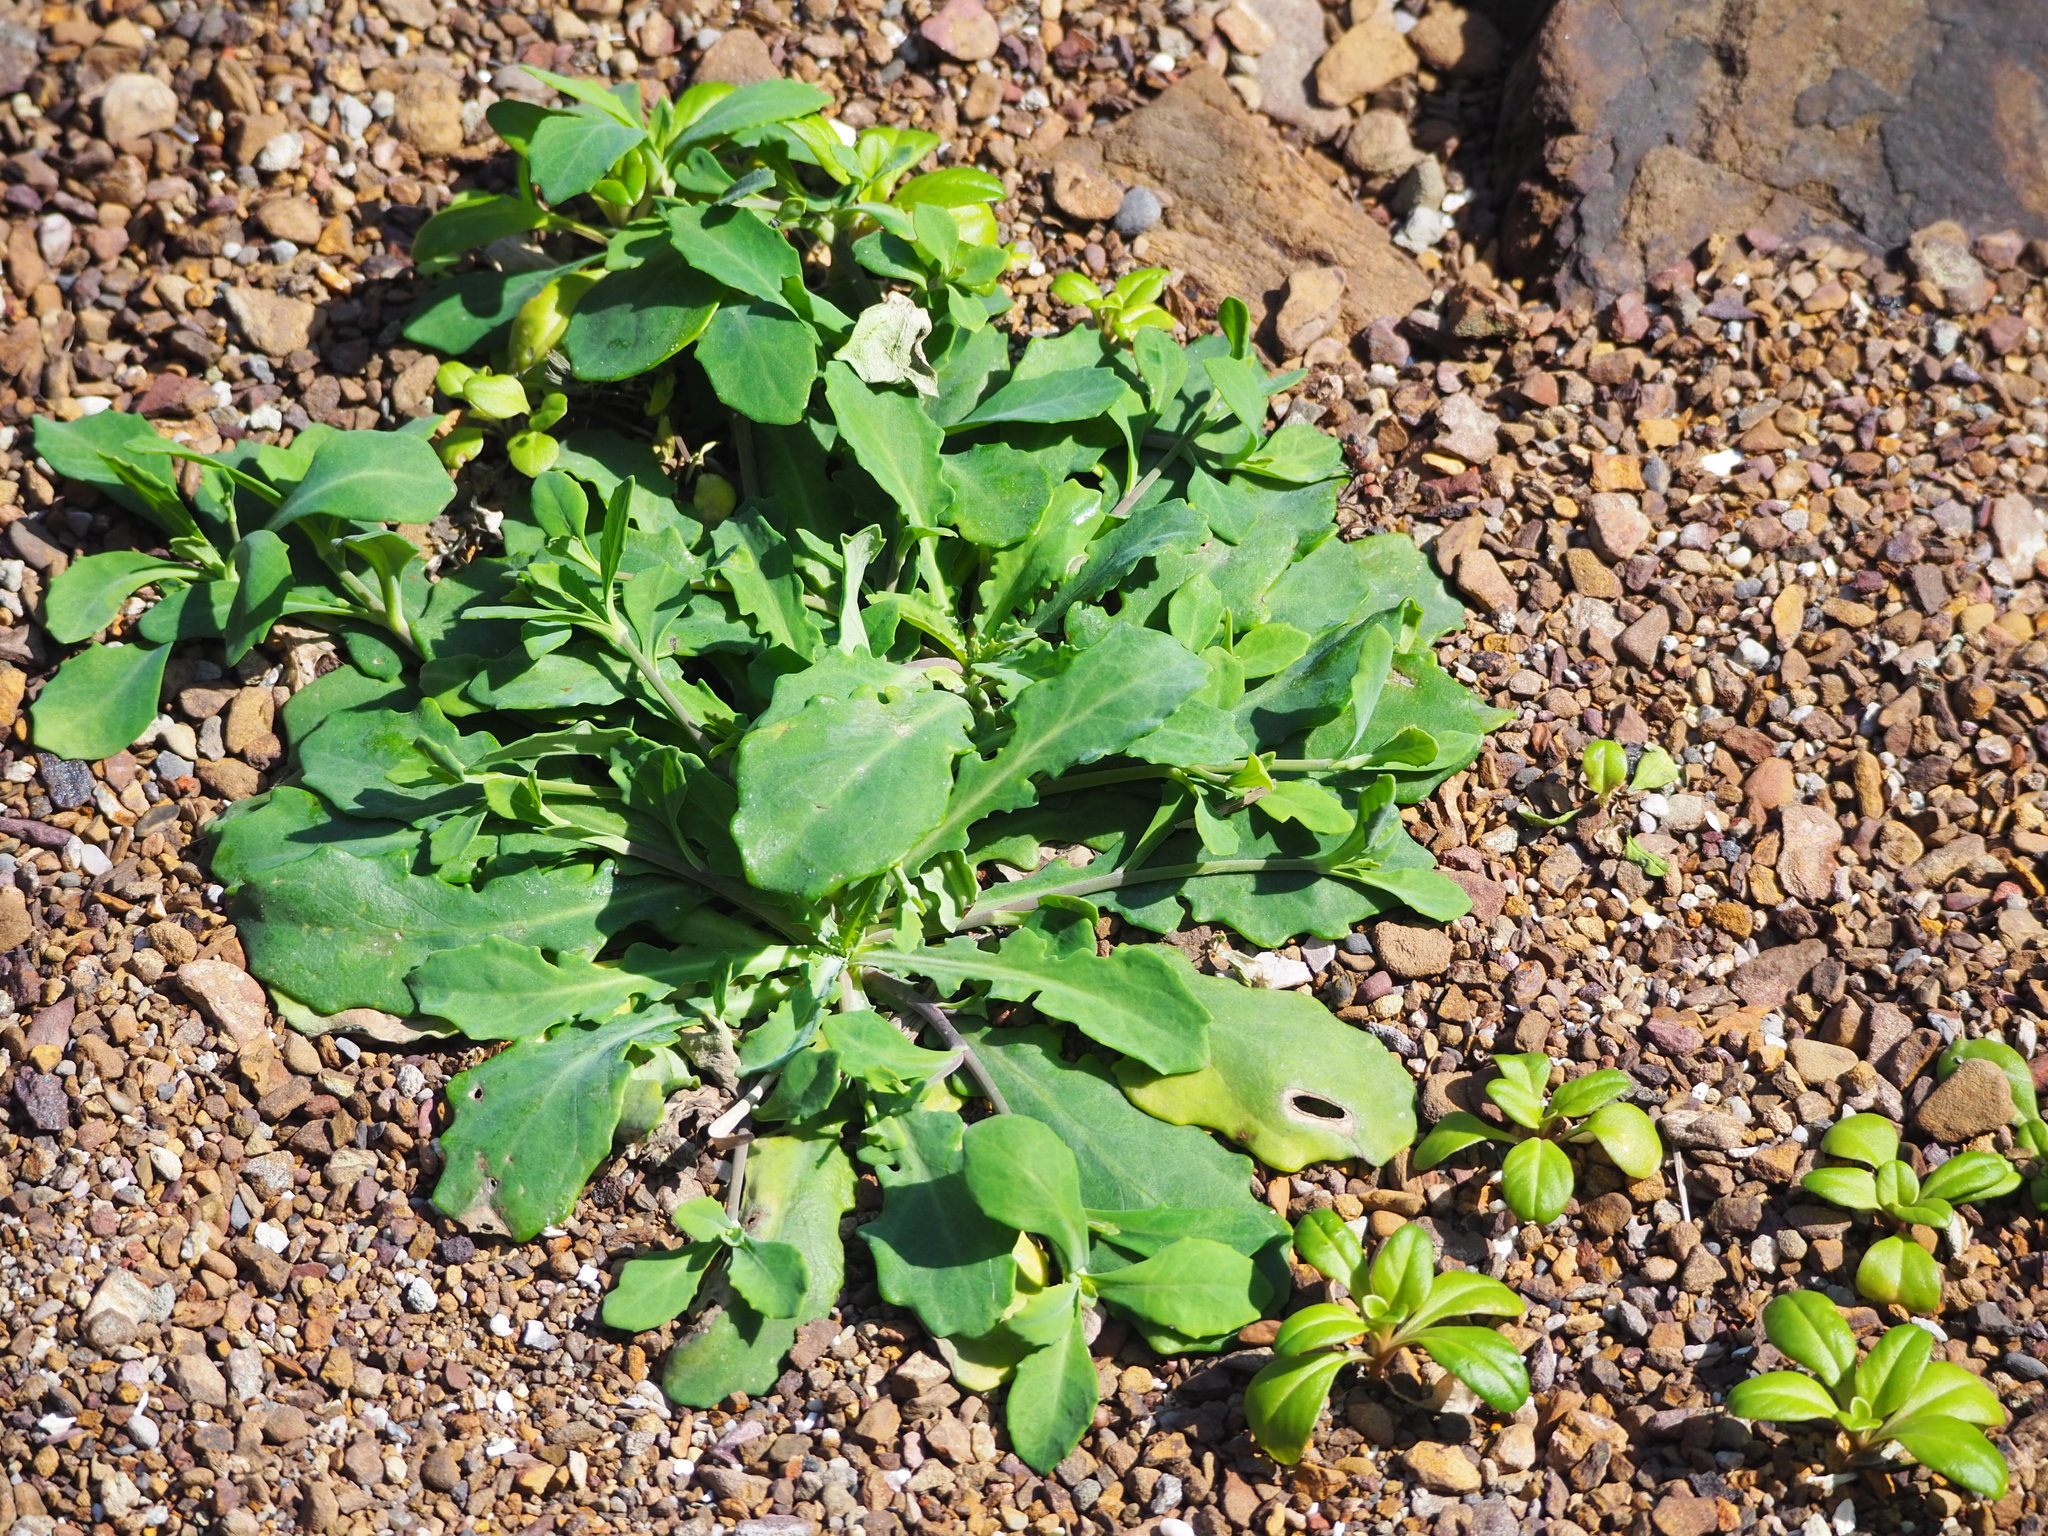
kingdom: Plantae
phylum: Tracheophyta
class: Magnoliopsida
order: Asterales
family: Asteraceae
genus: Crepidiastrum
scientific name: Crepidiastrum lanceolatum
